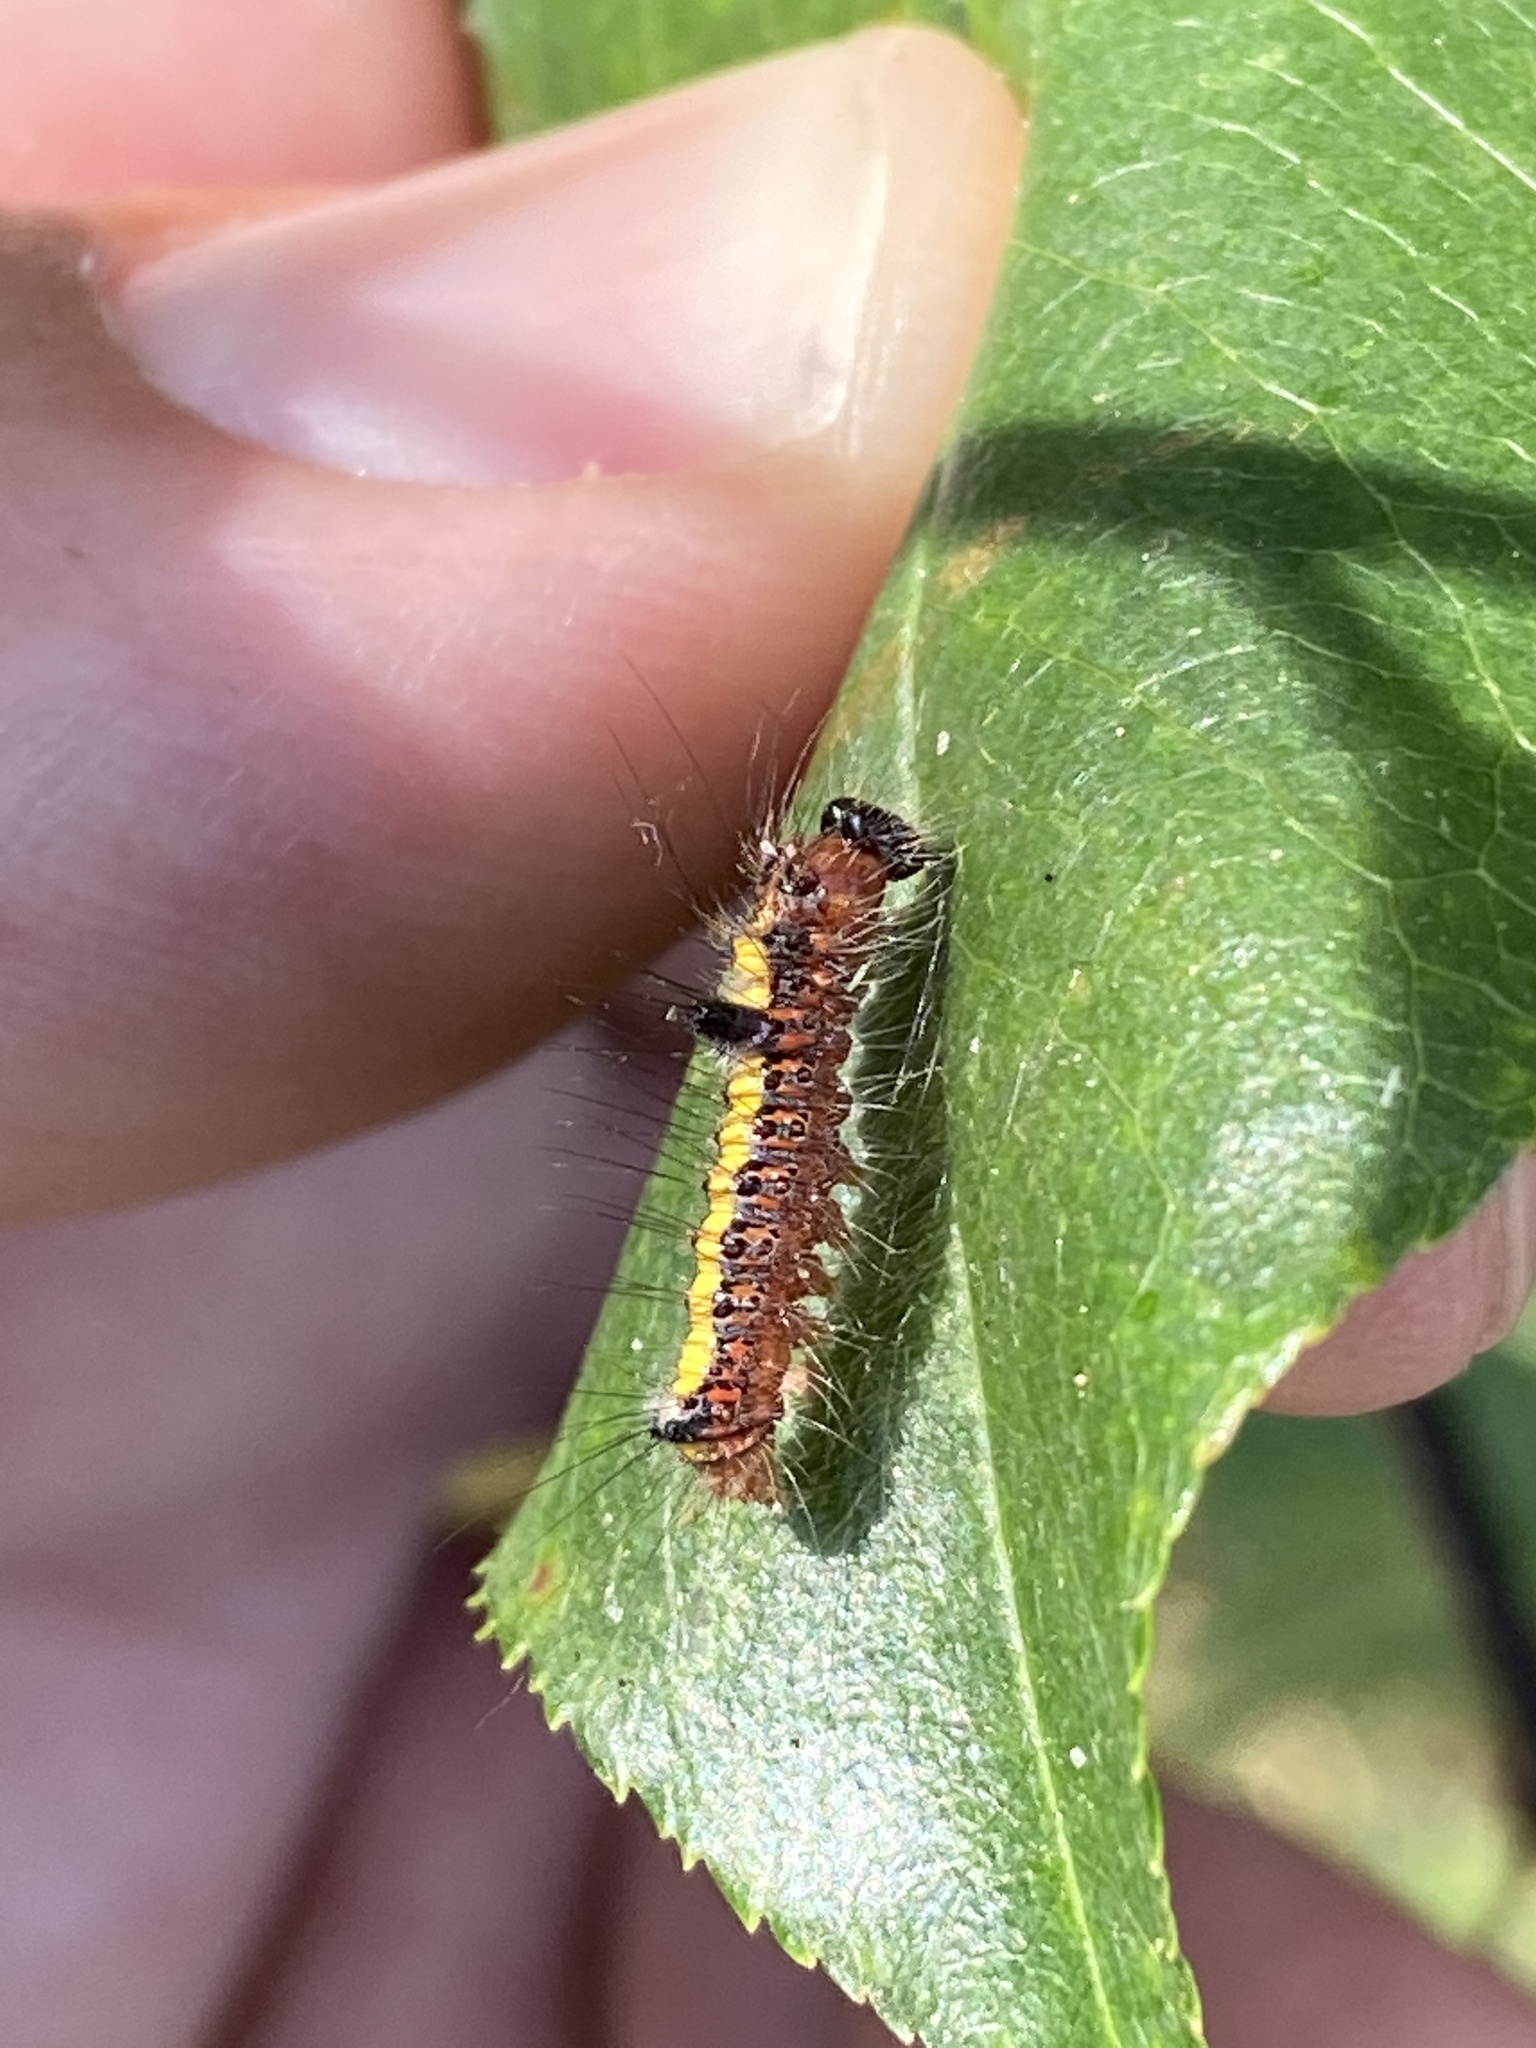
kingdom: Animalia
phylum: Arthropoda
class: Insecta
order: Lepidoptera
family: Noctuidae
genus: Acronicta
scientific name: Acronicta psi
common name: Grey dagger
